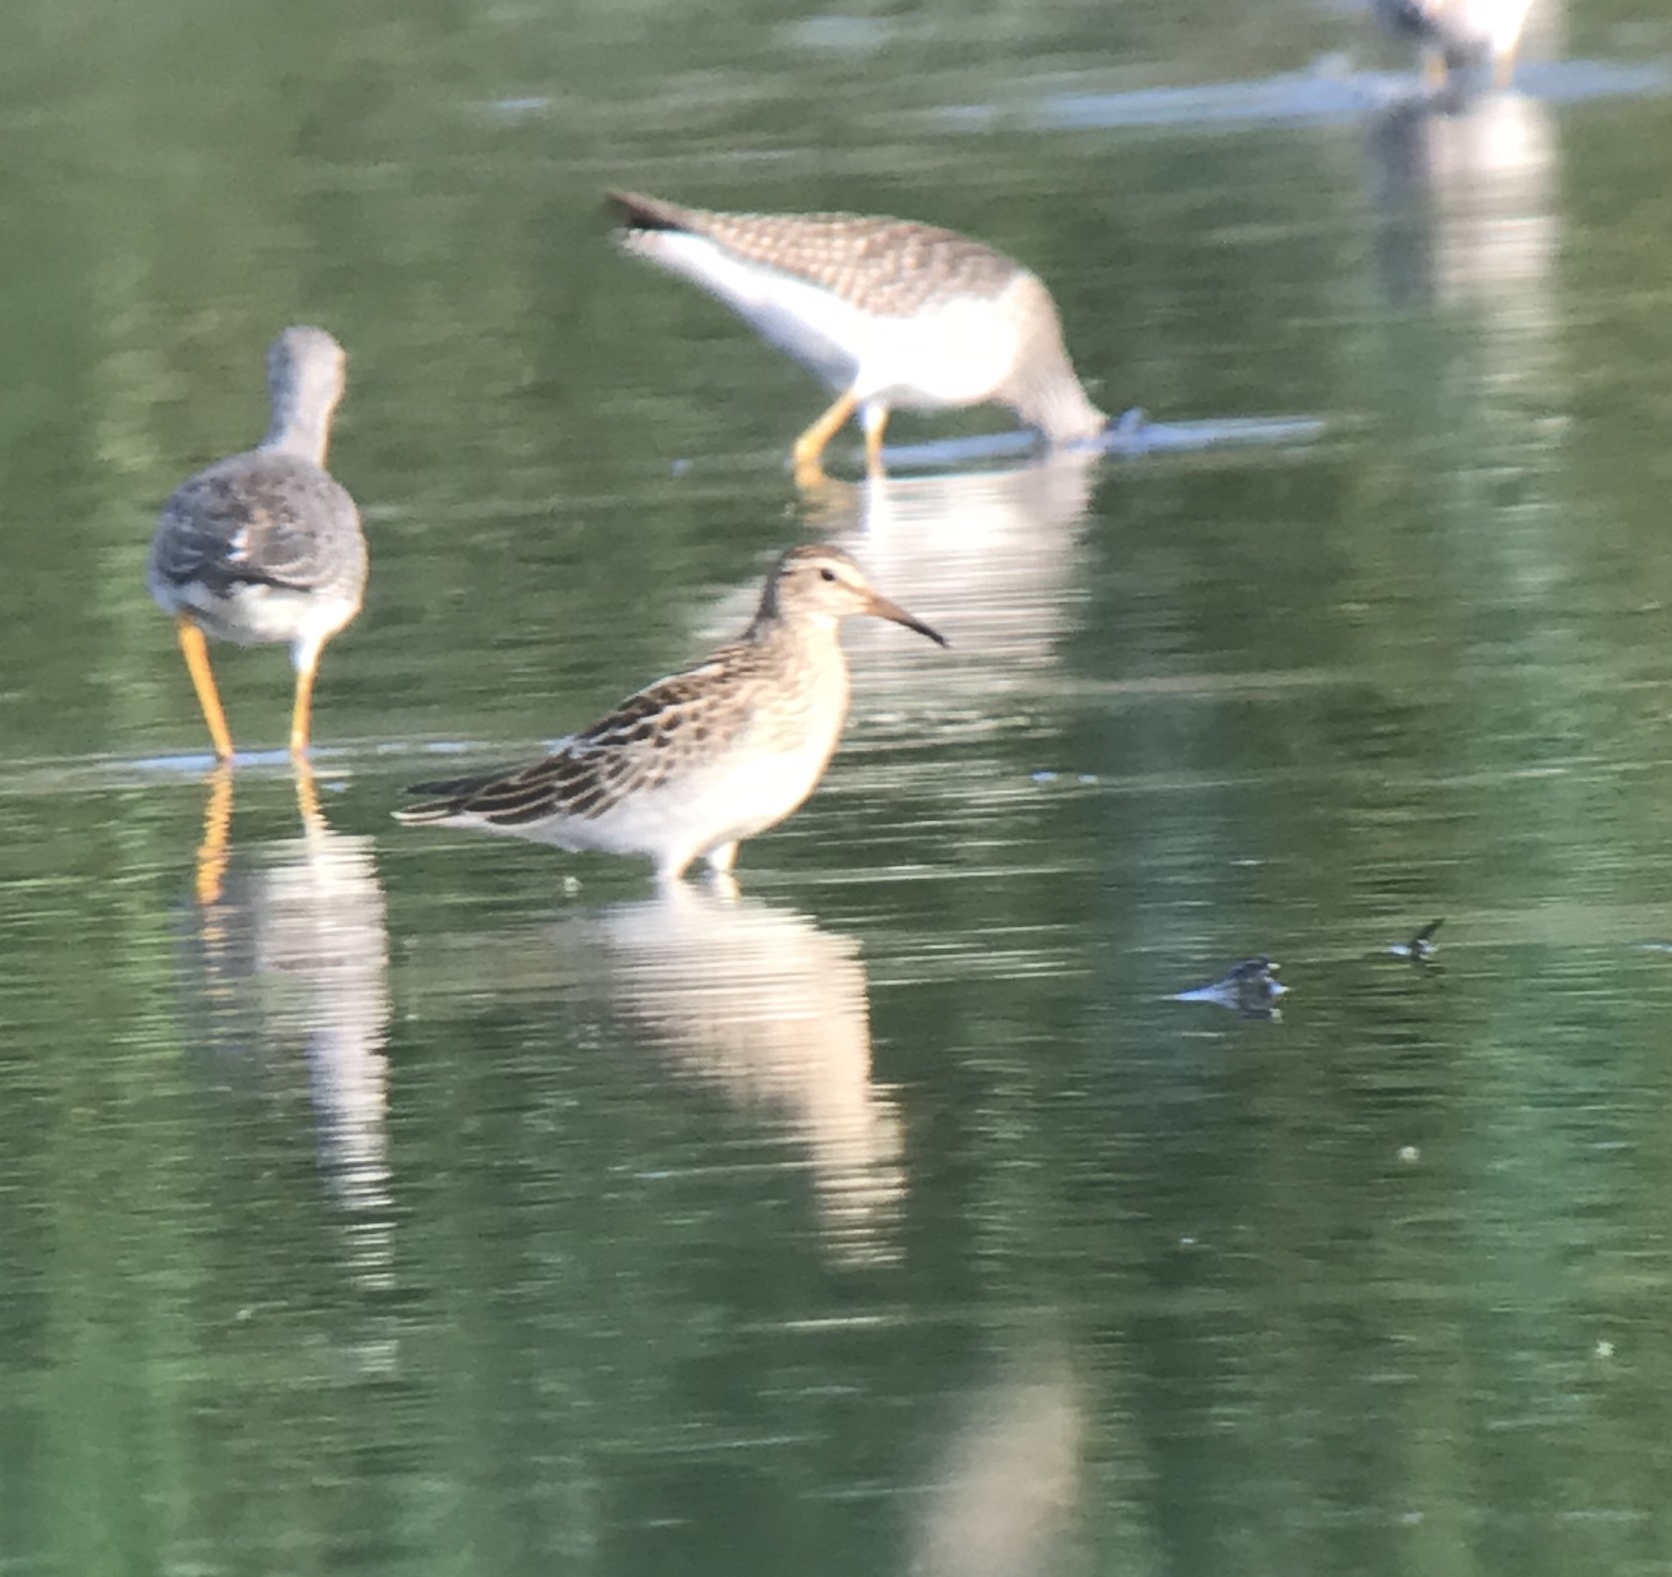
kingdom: Animalia
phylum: Chordata
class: Aves
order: Charadriiformes
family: Scolopacidae
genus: Calidris
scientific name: Calidris melanotos
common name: Pectoral sandpiper
